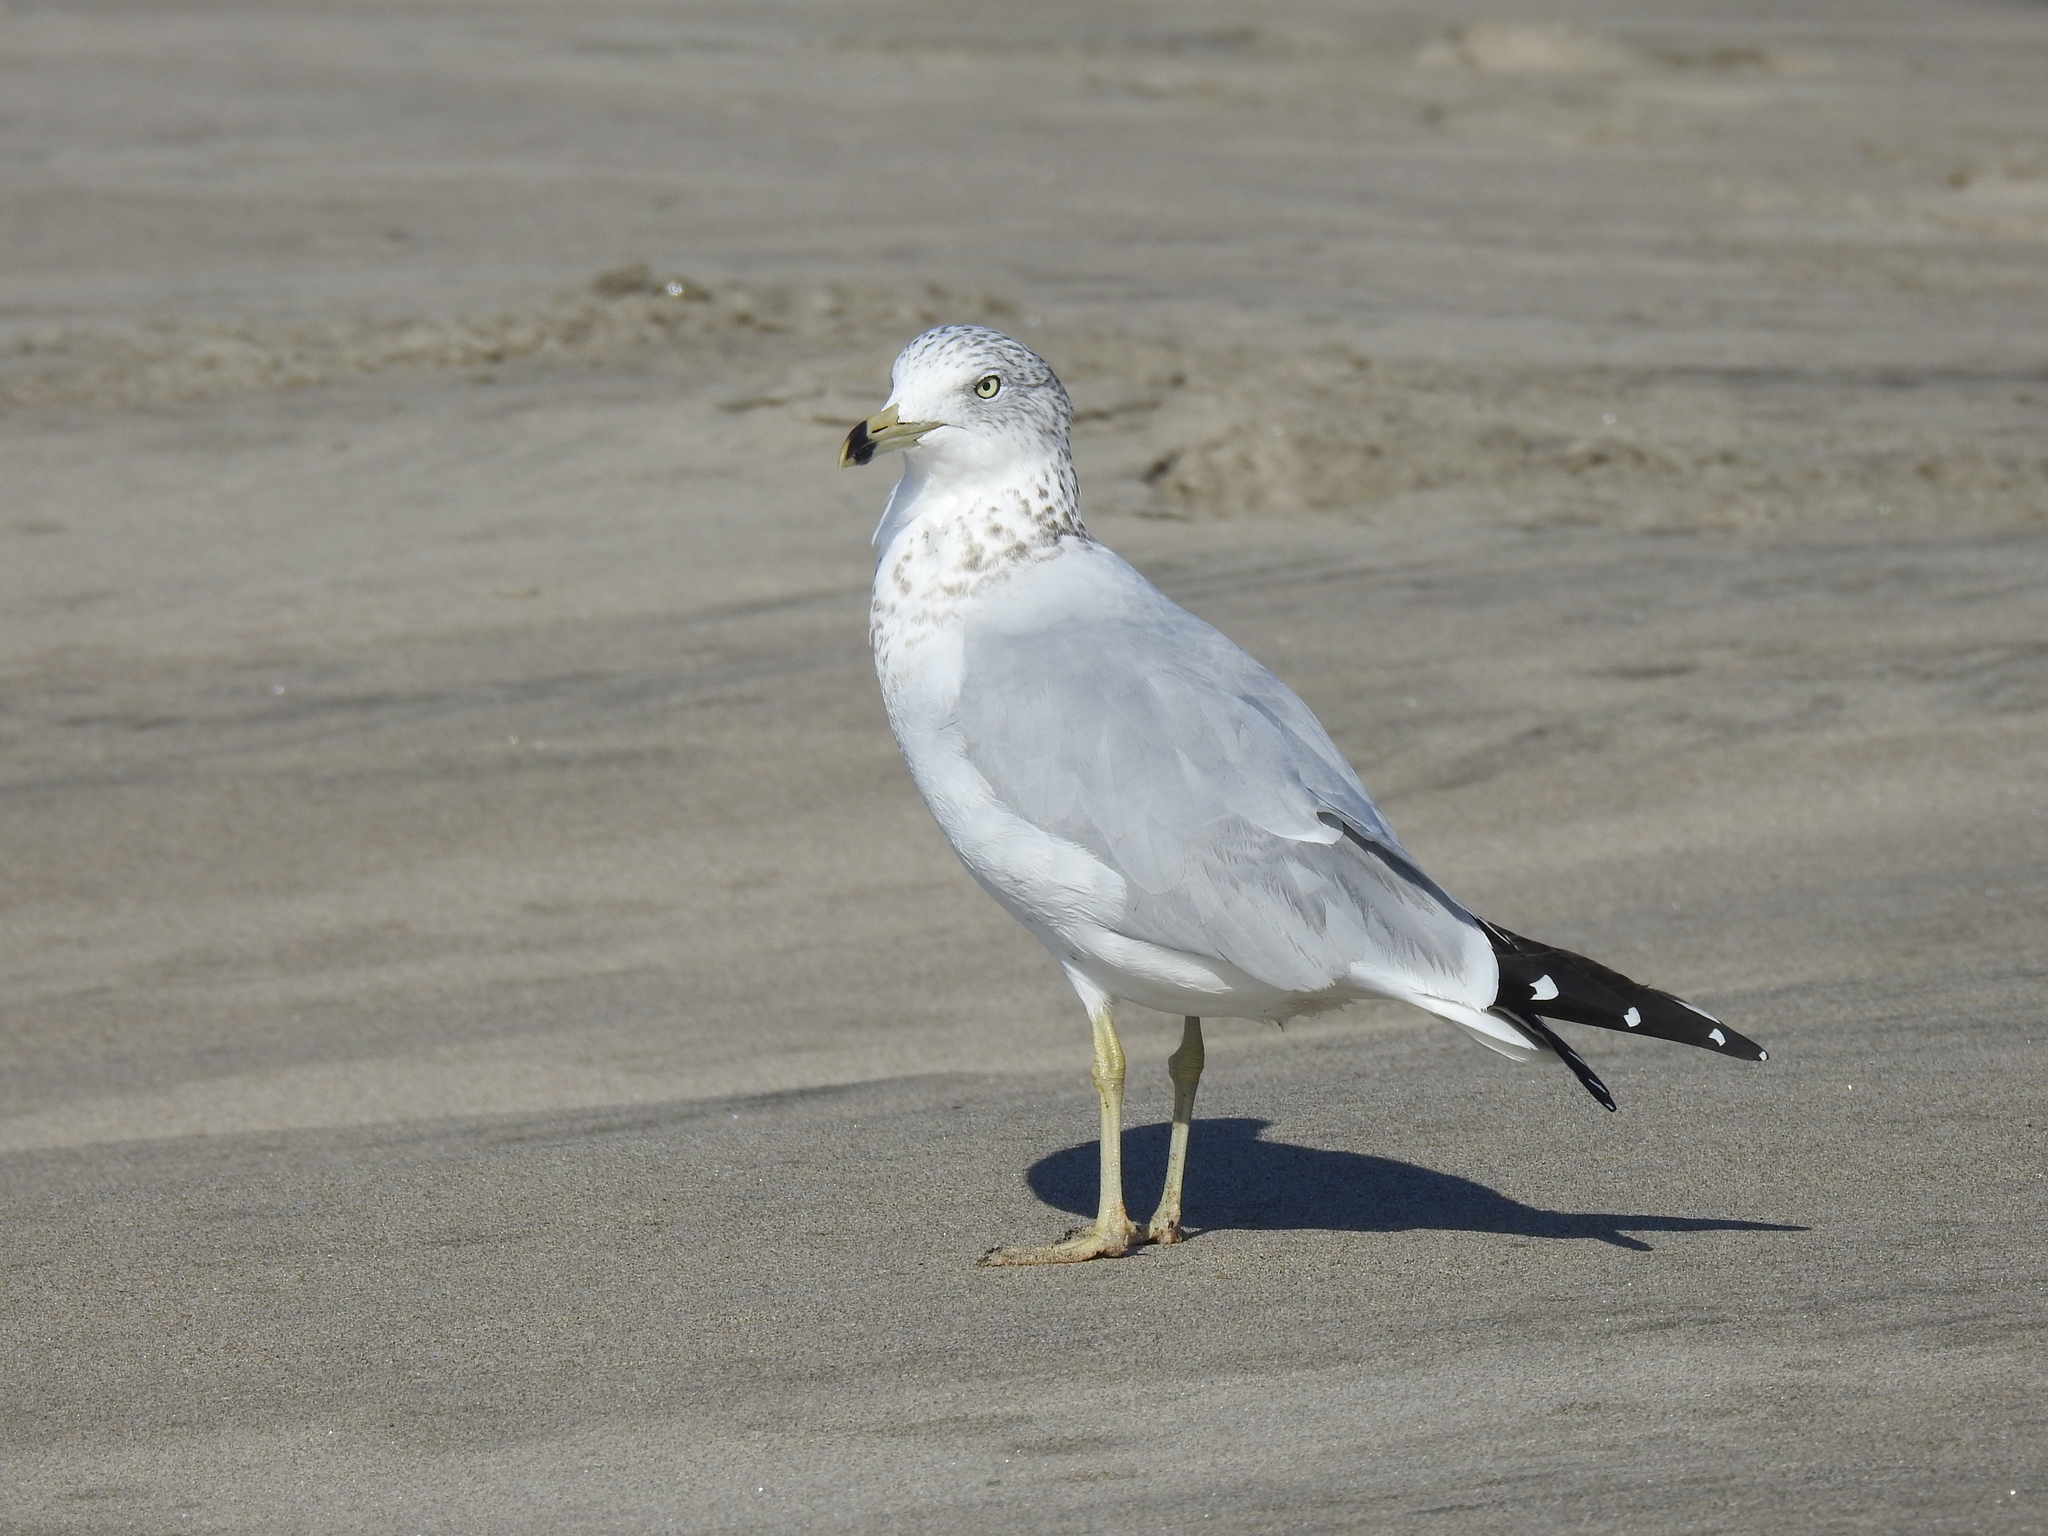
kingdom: Animalia
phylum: Chordata
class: Aves
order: Charadriiformes
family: Laridae
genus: Larus
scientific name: Larus delawarensis
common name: Ring-billed gull
